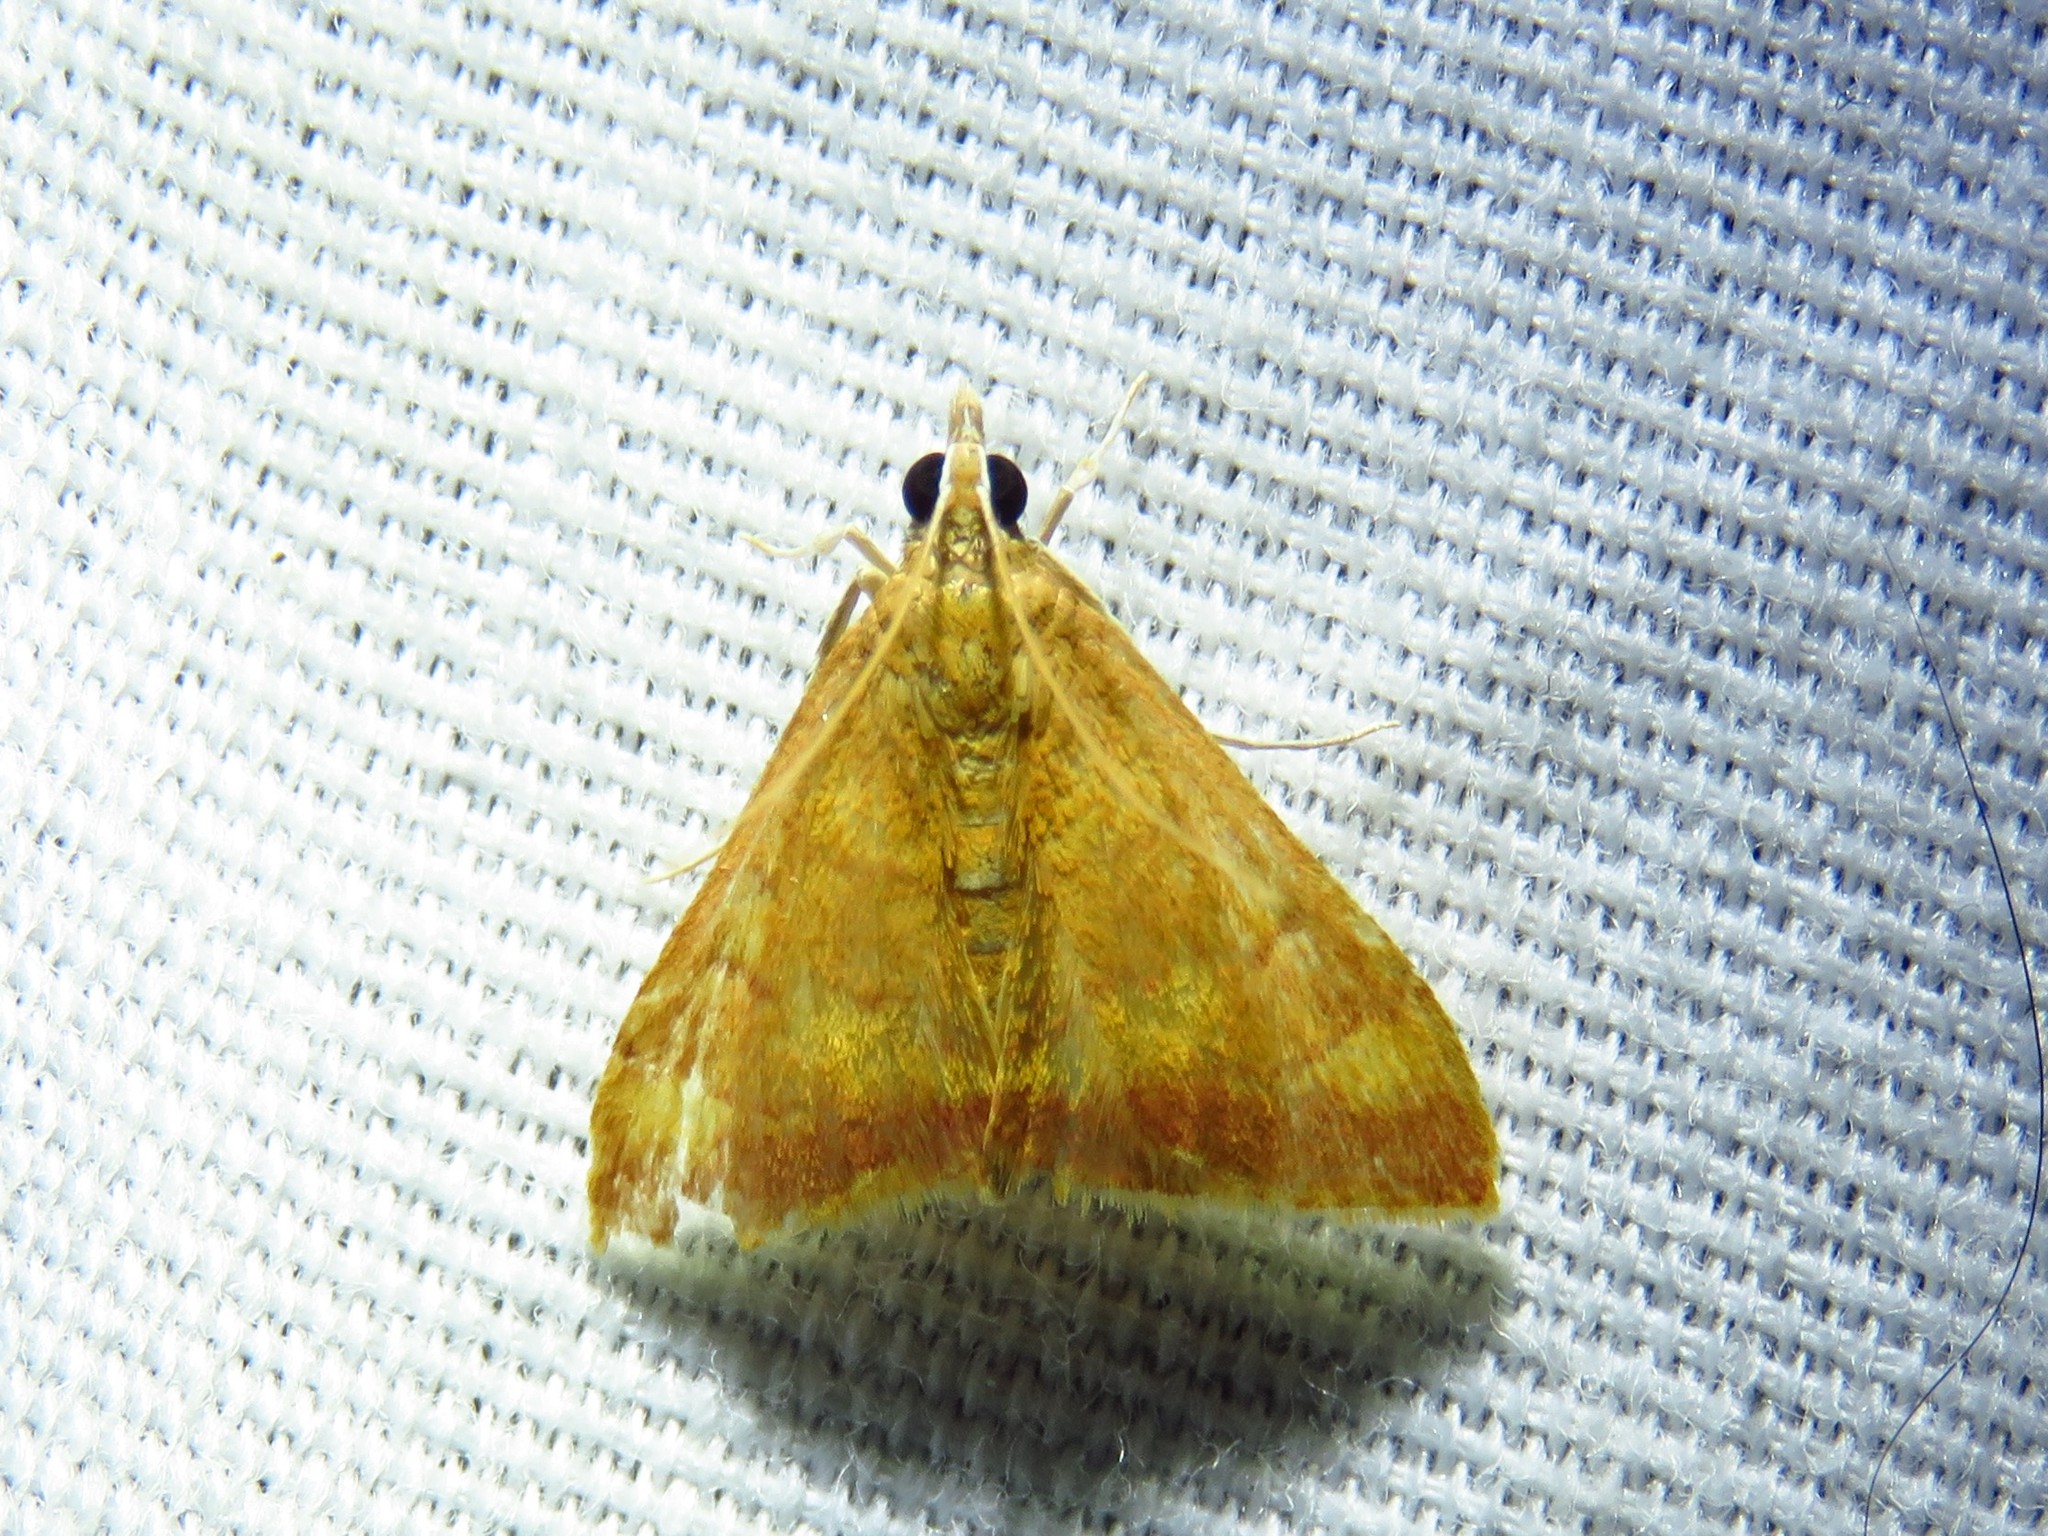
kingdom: Animalia
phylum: Arthropoda
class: Insecta
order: Lepidoptera
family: Crambidae
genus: Pyrausta
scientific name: Pyrausta pseudonythesalis
